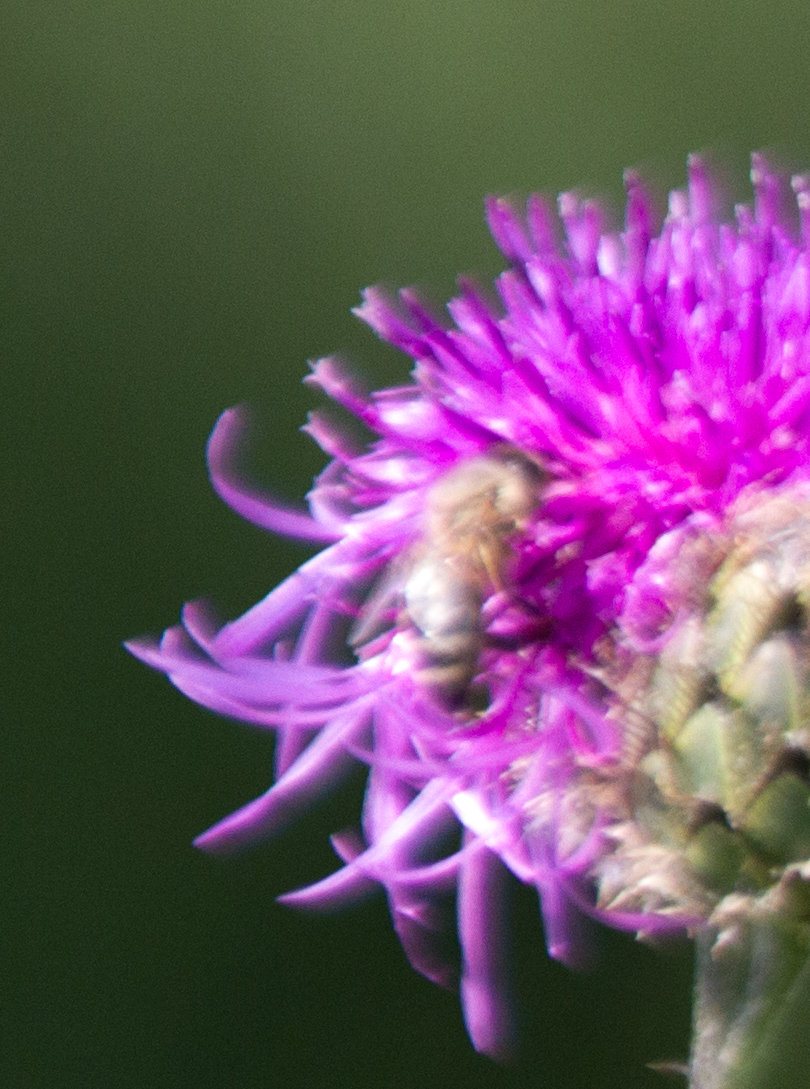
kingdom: Animalia
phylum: Arthropoda
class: Insecta
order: Hymenoptera
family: Apidae
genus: Apis
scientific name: Apis mellifera
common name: Honey bee
